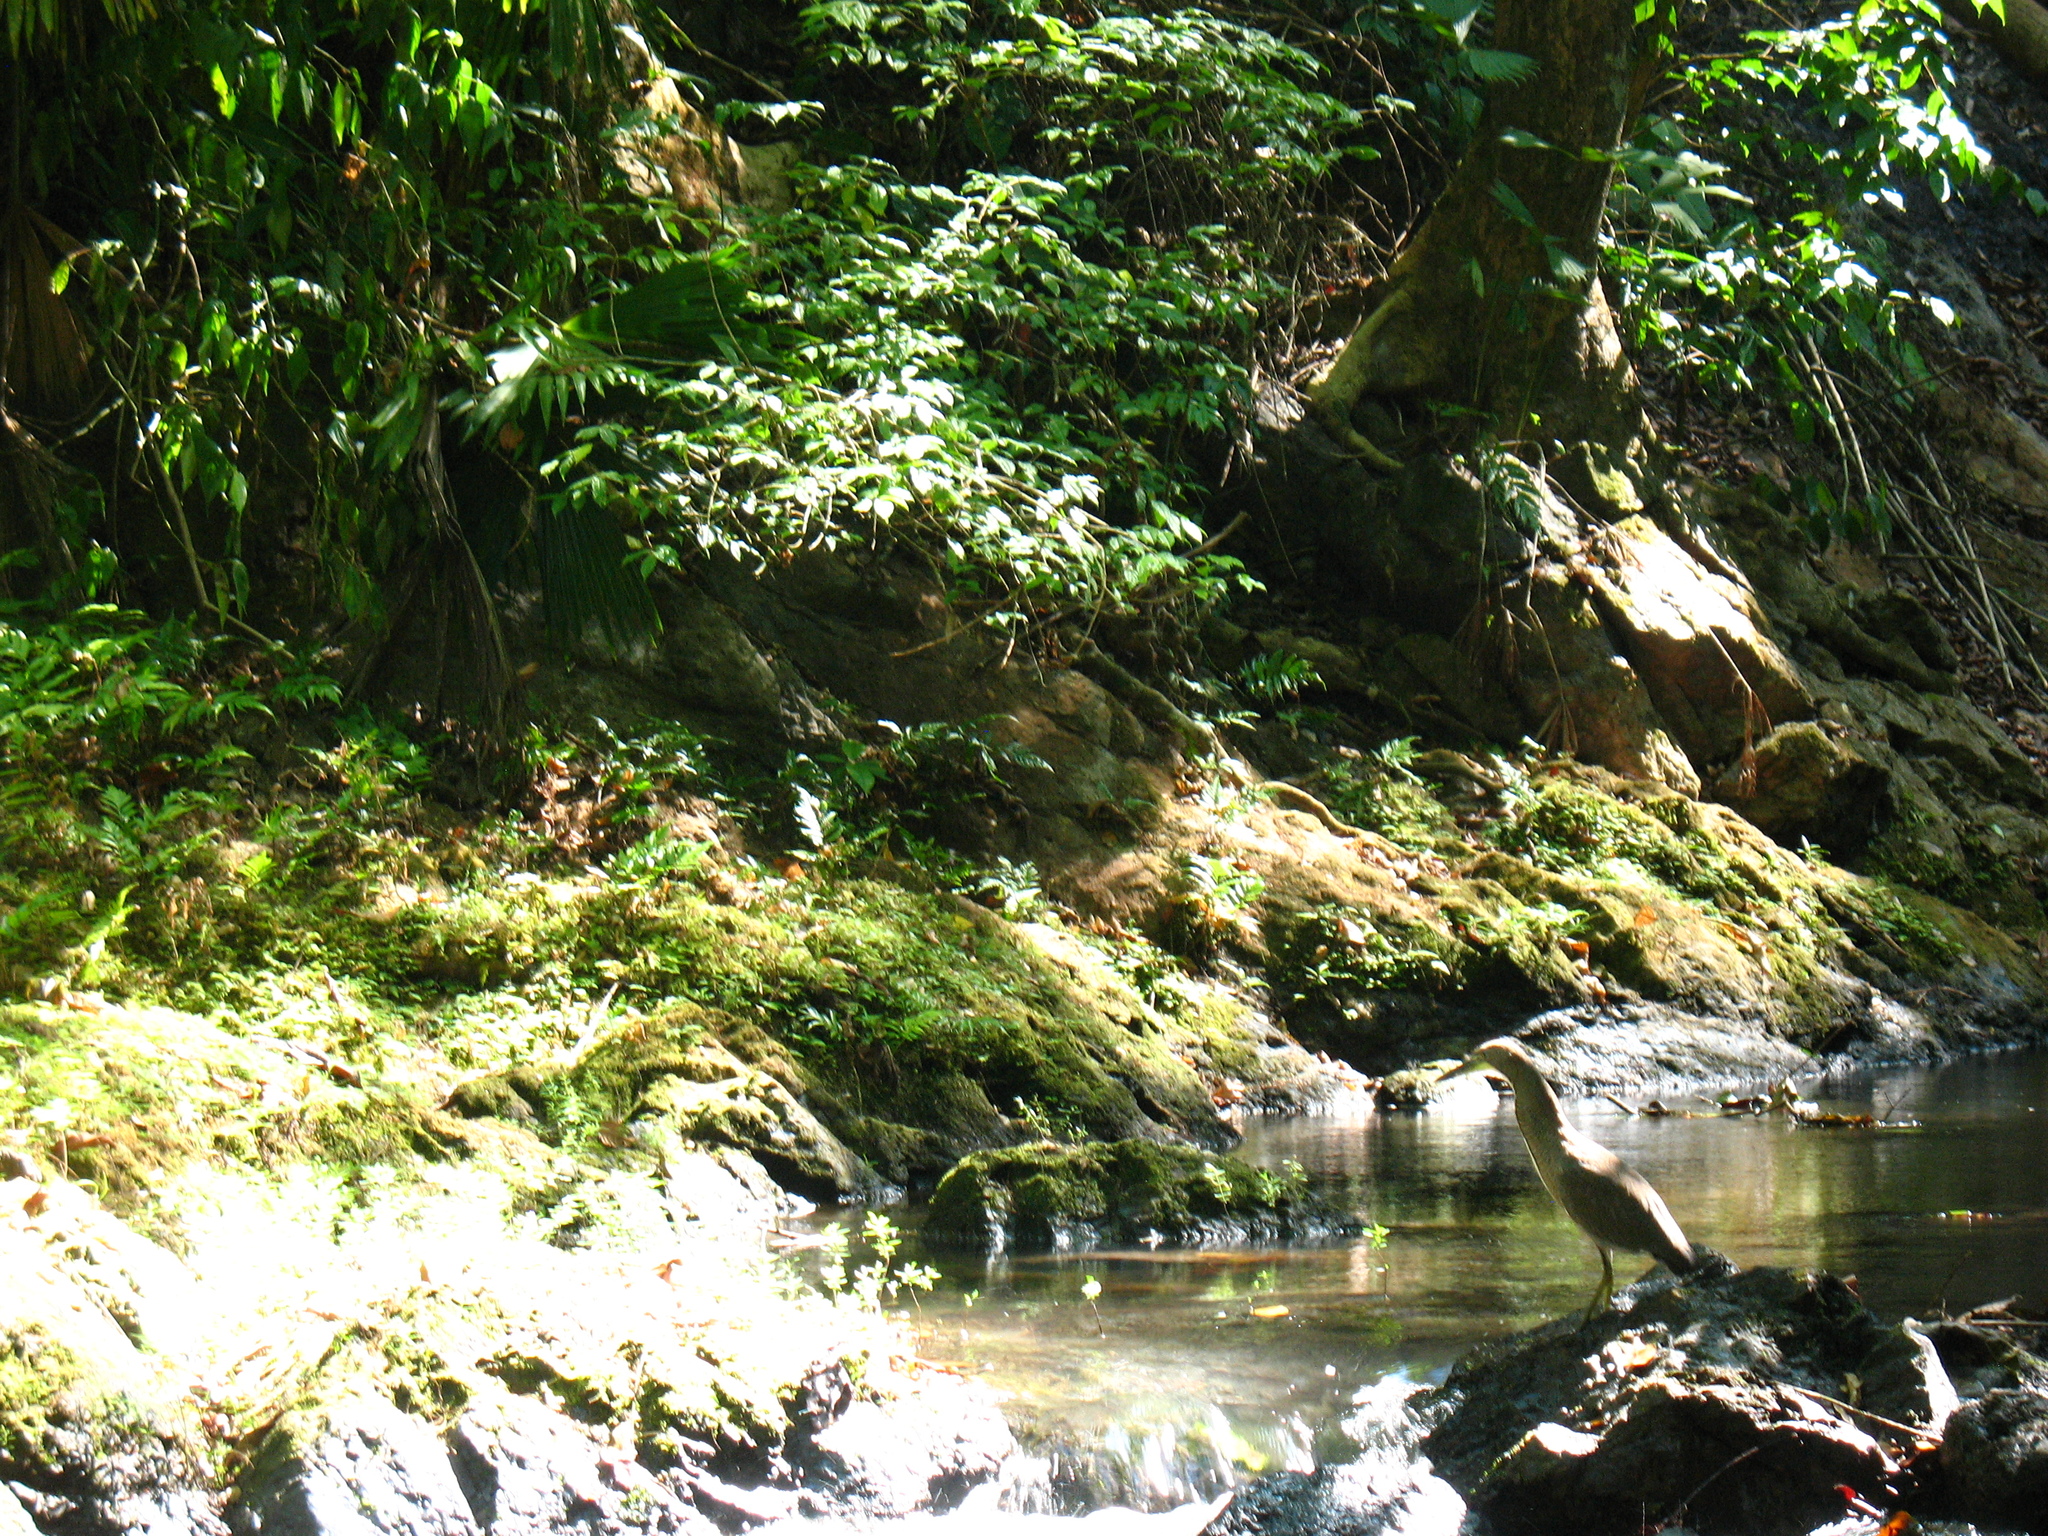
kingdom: Animalia
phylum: Chordata
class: Aves
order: Pelecaniformes
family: Ardeidae
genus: Tigrisoma
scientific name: Tigrisoma mexicanum
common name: Bare-throated tiger-heron
